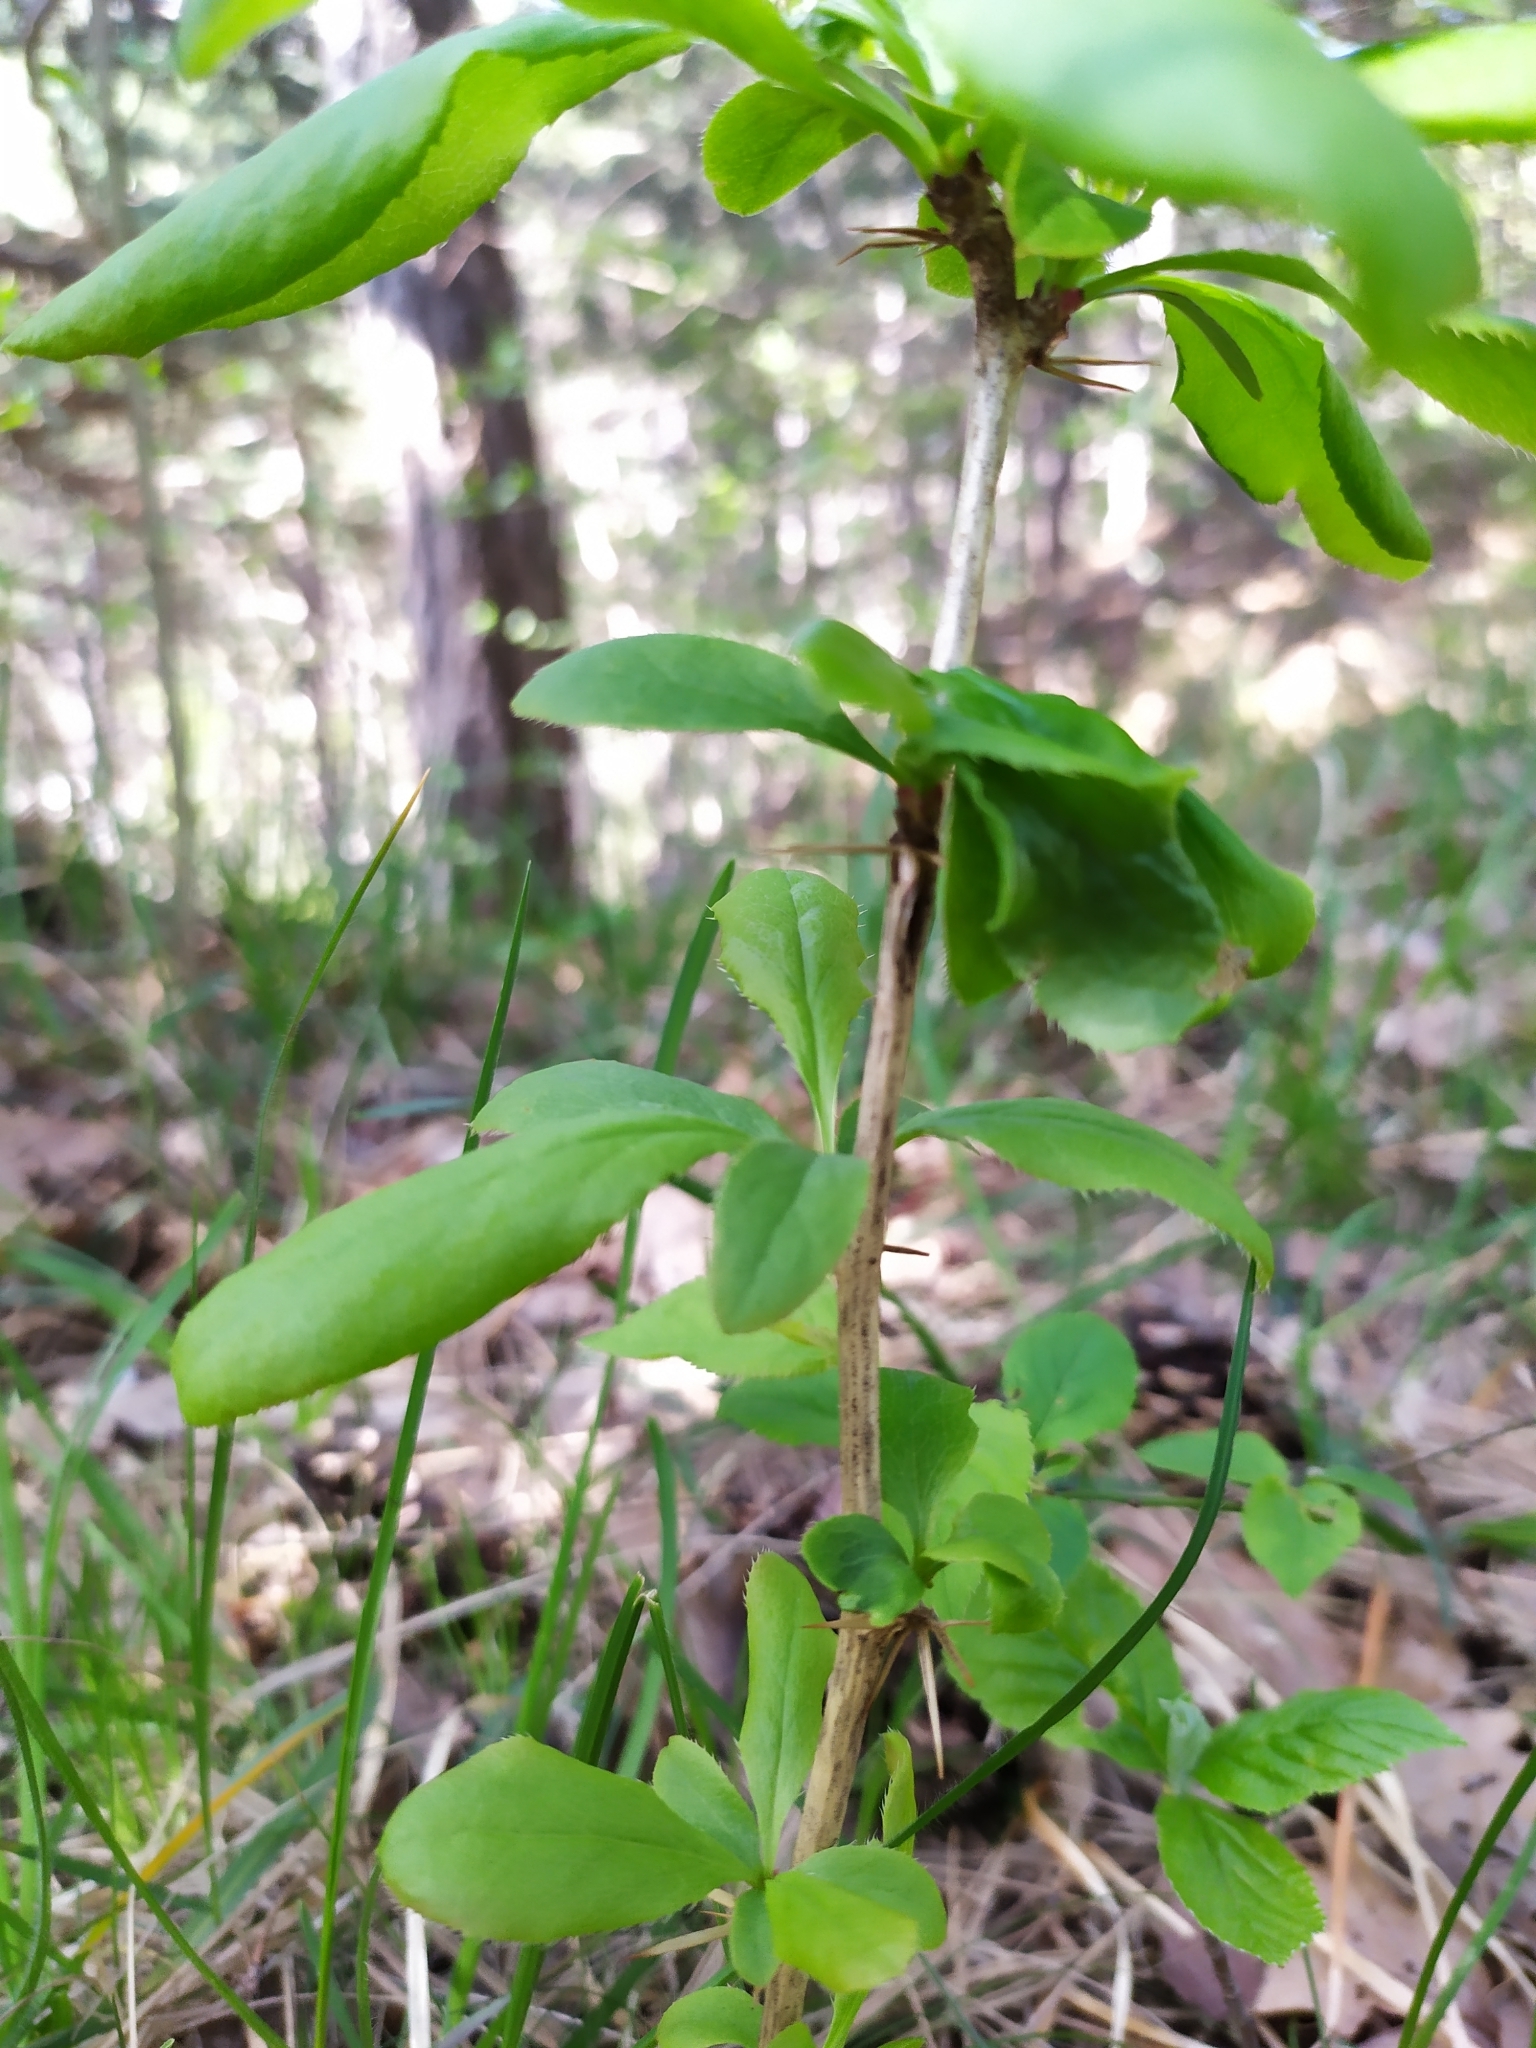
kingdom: Plantae
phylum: Tracheophyta
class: Magnoliopsida
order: Ranunculales
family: Berberidaceae
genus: Berberis
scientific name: Berberis vulgaris
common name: Barberry
